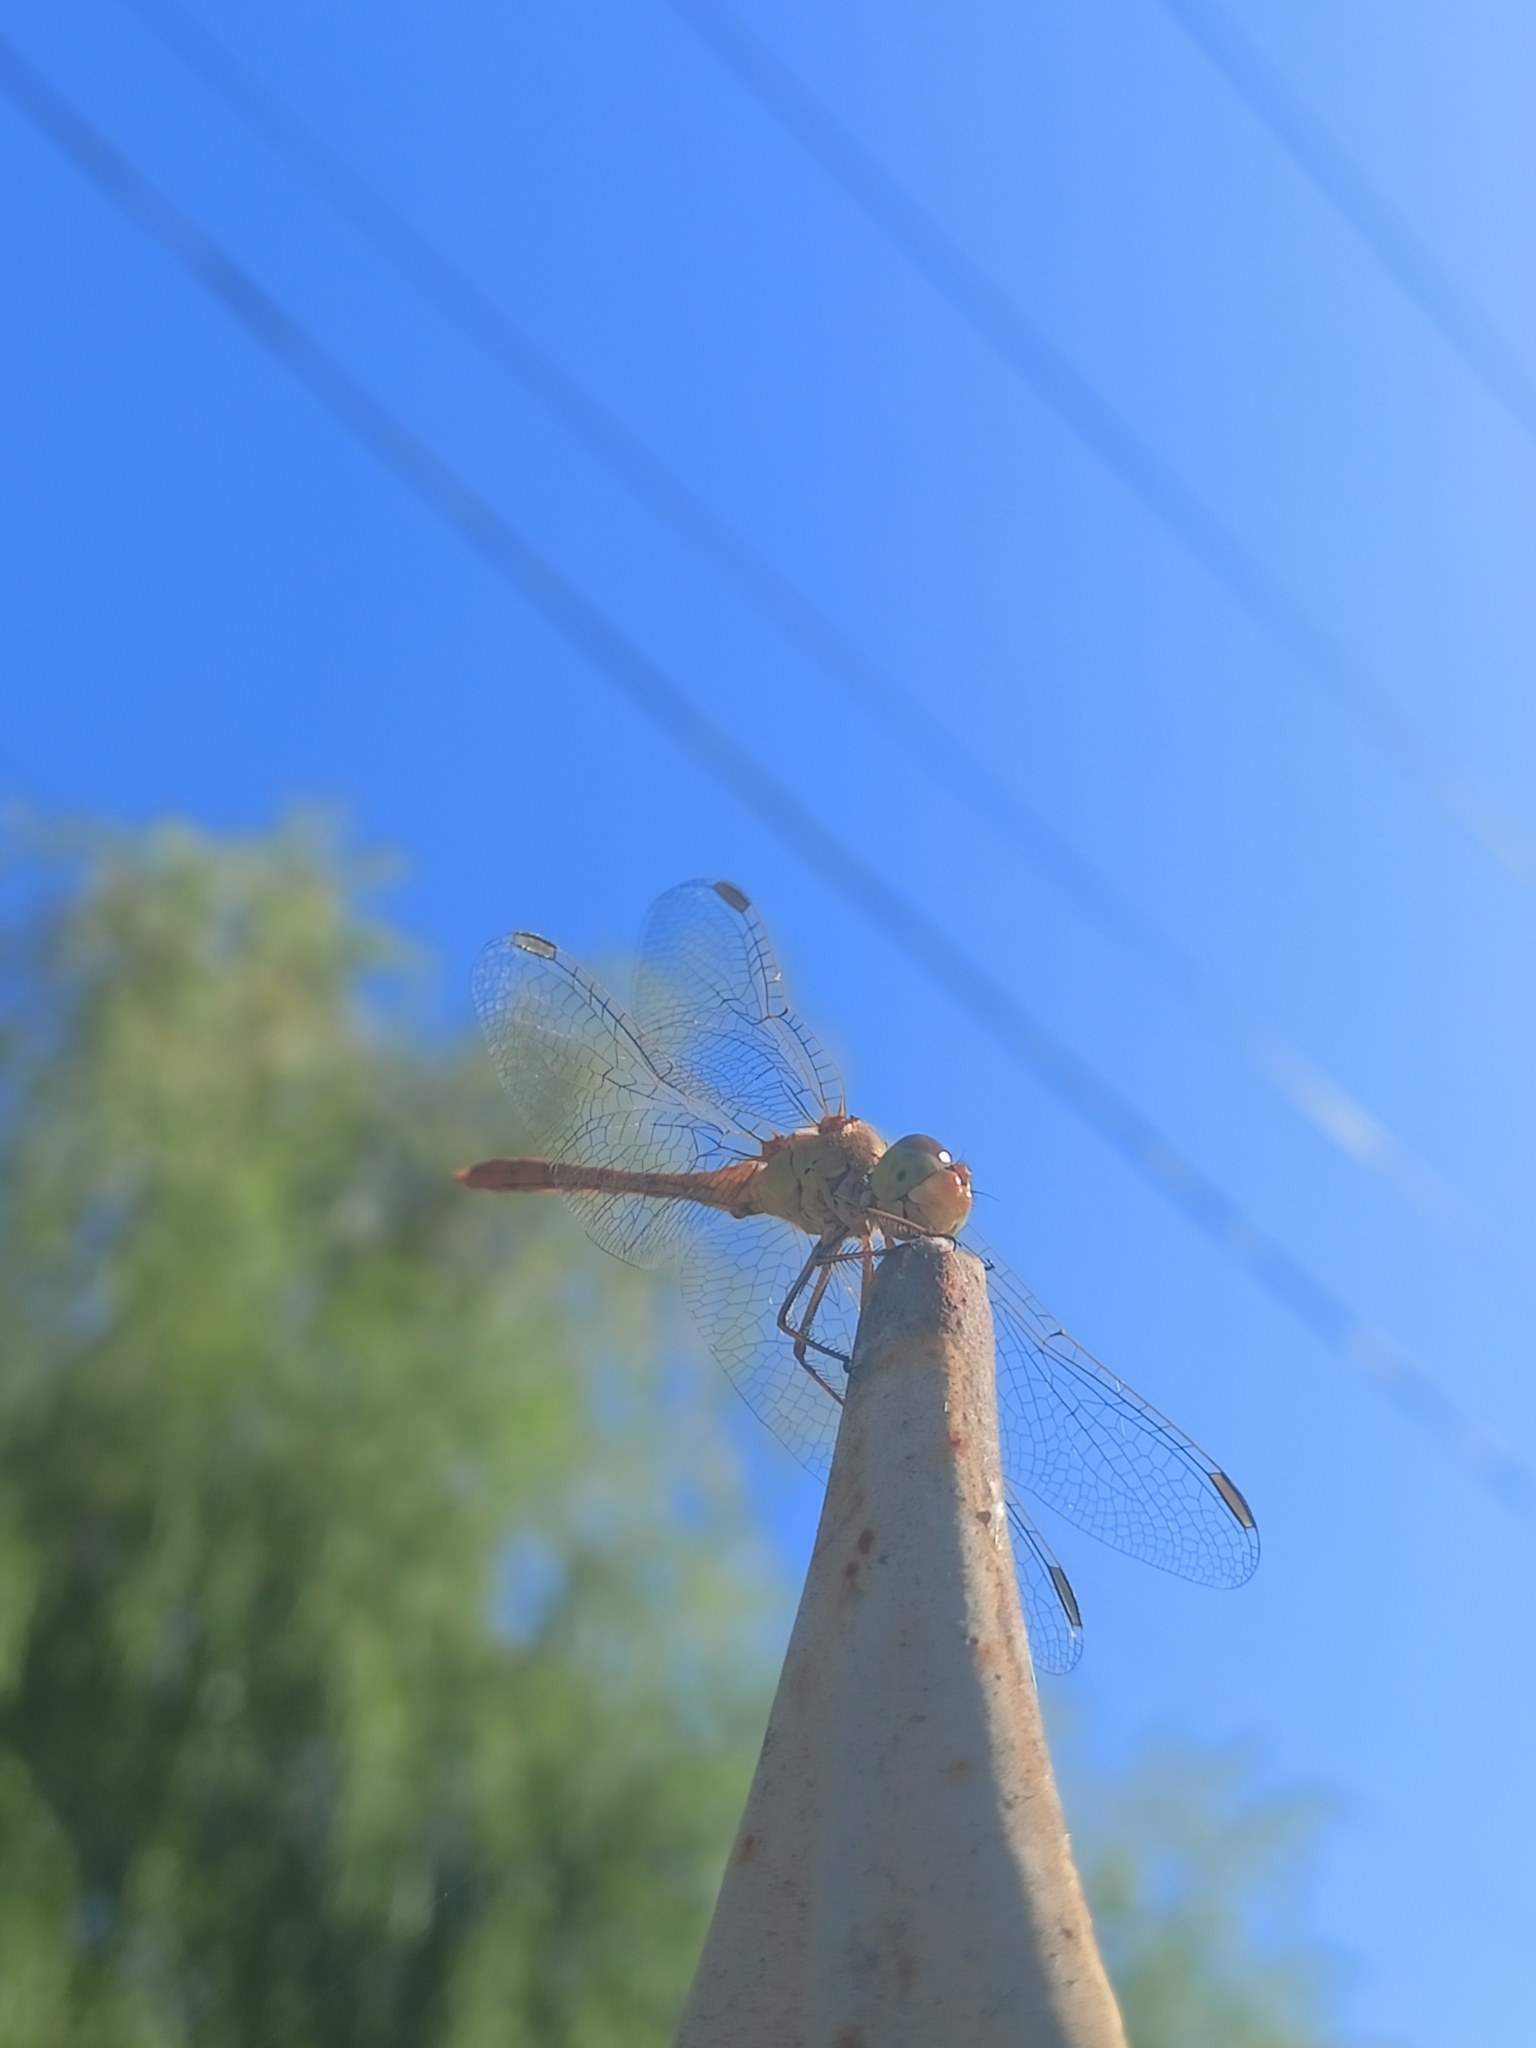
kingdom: Animalia
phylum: Arthropoda
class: Insecta
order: Odonata
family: Libellulidae
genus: Sympetrum
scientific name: Sympetrum meridionale
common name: Southern darter
